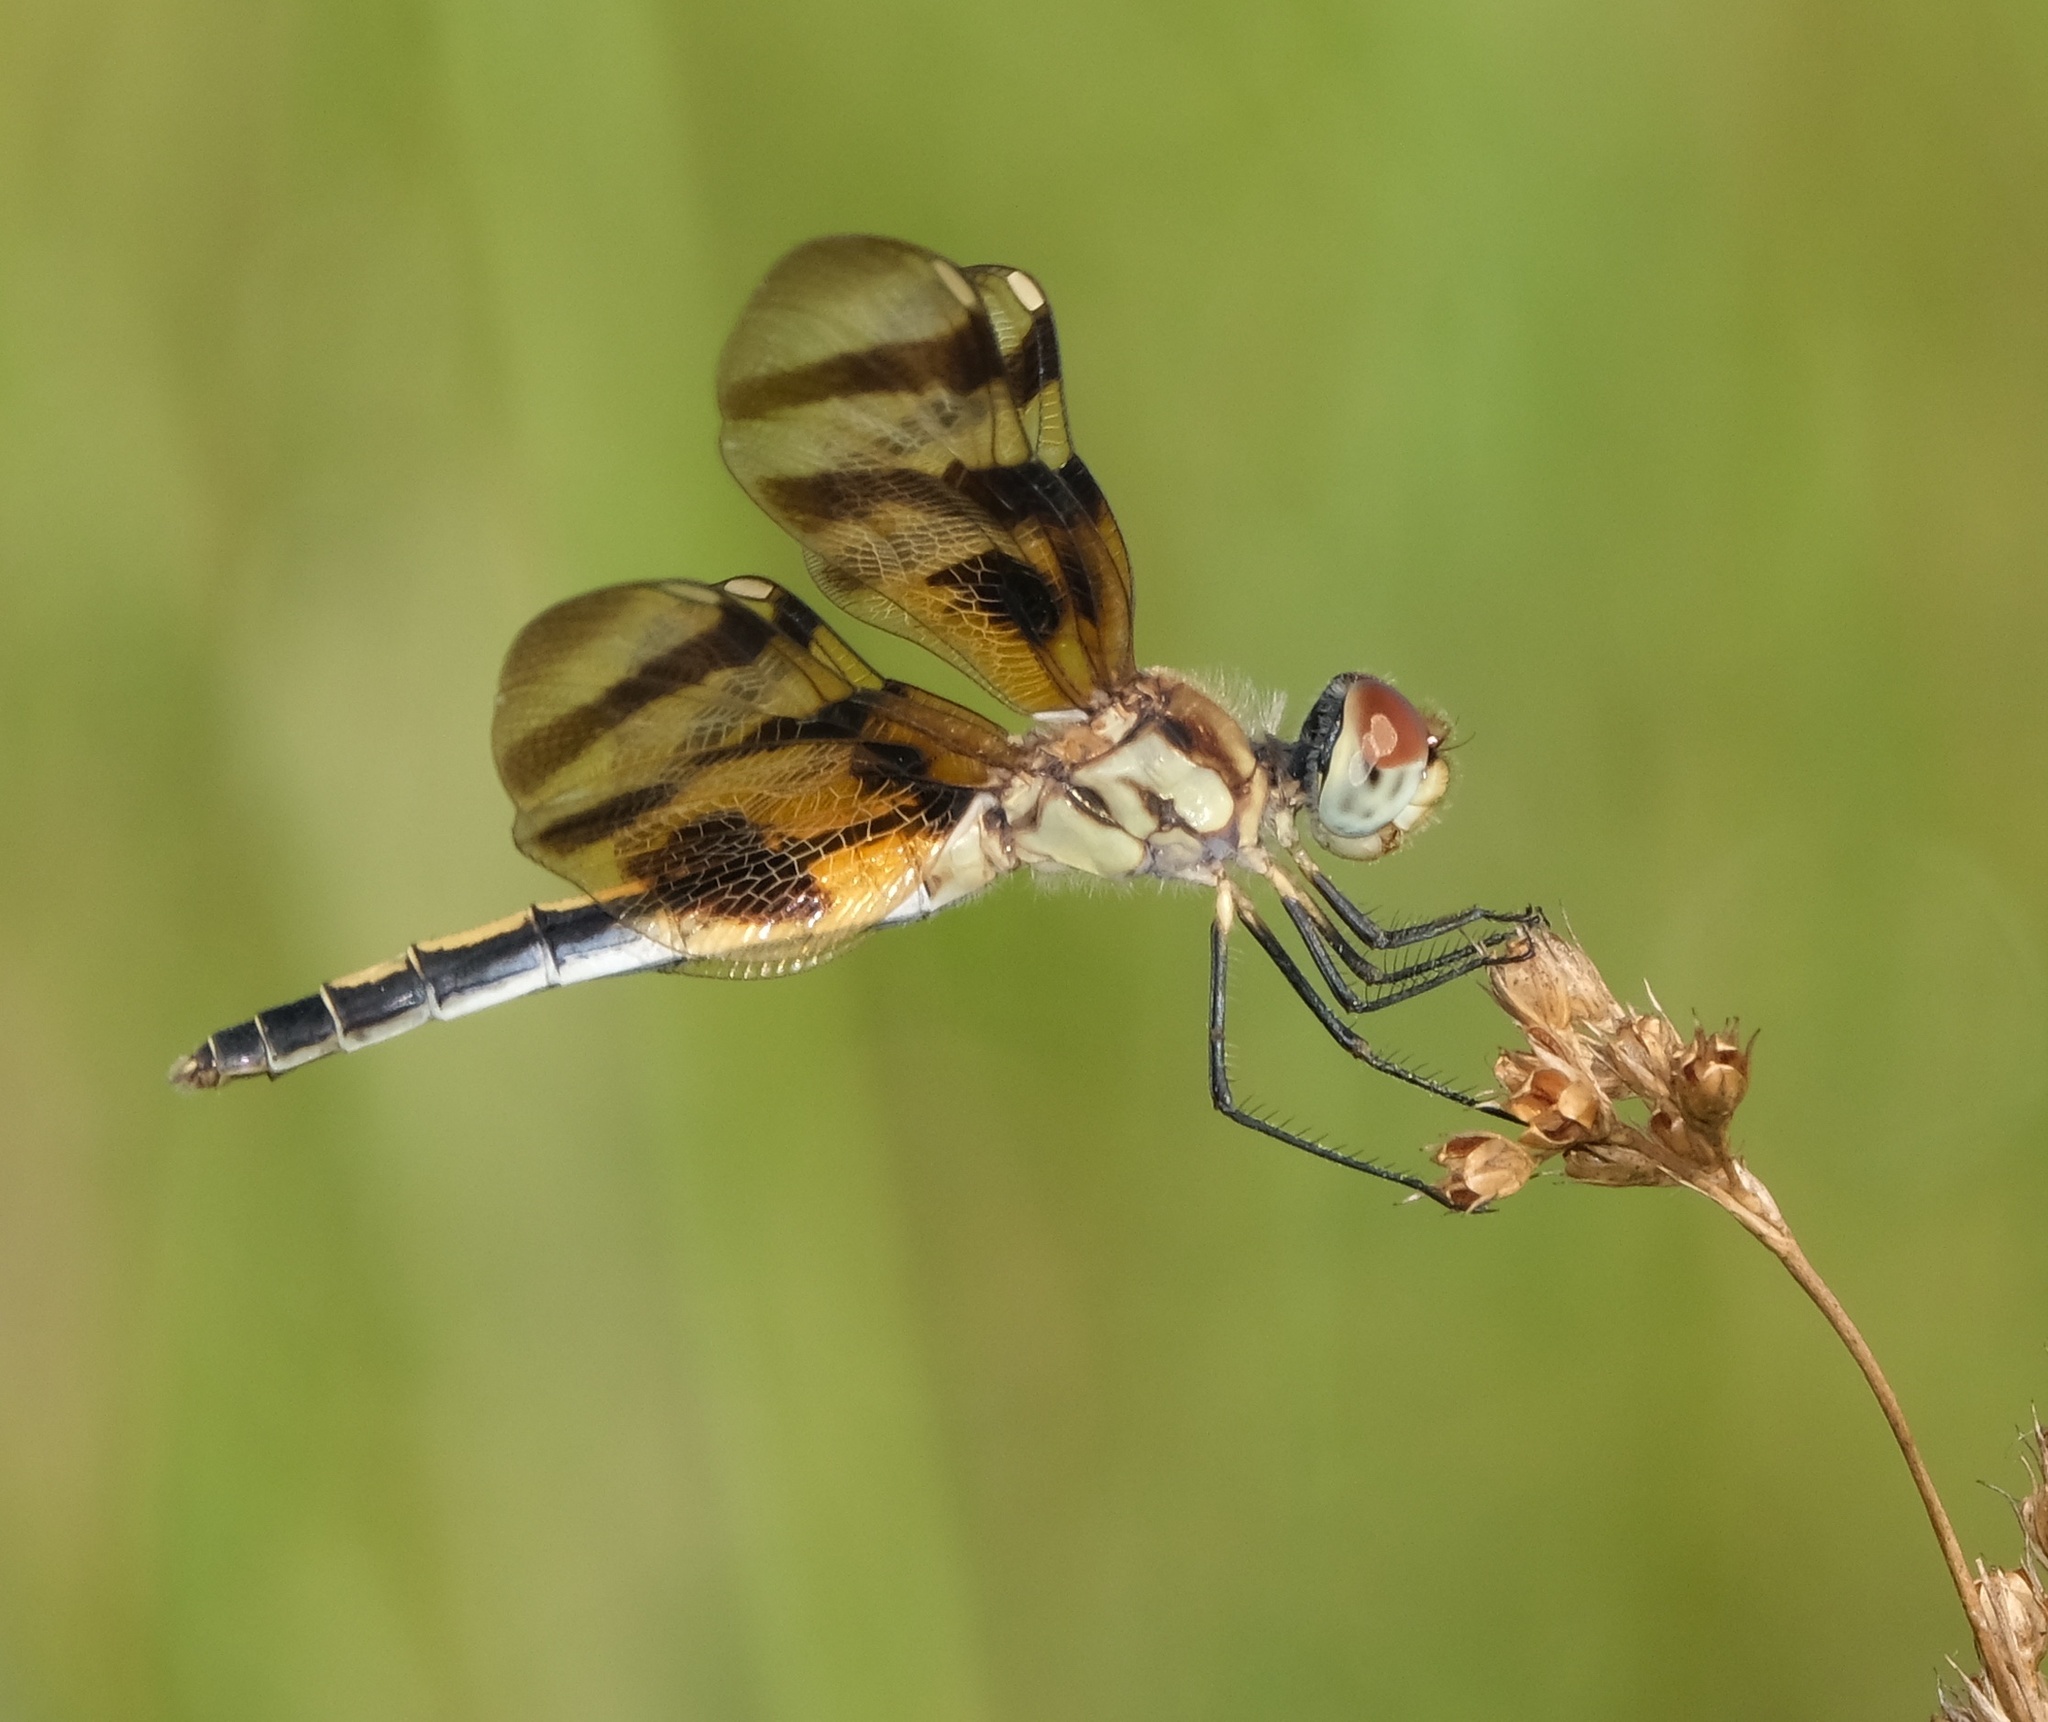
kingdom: Animalia
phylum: Arthropoda
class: Insecta
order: Odonata
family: Libellulidae
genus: Celithemis
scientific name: Celithemis eponina
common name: Halloween pennant
